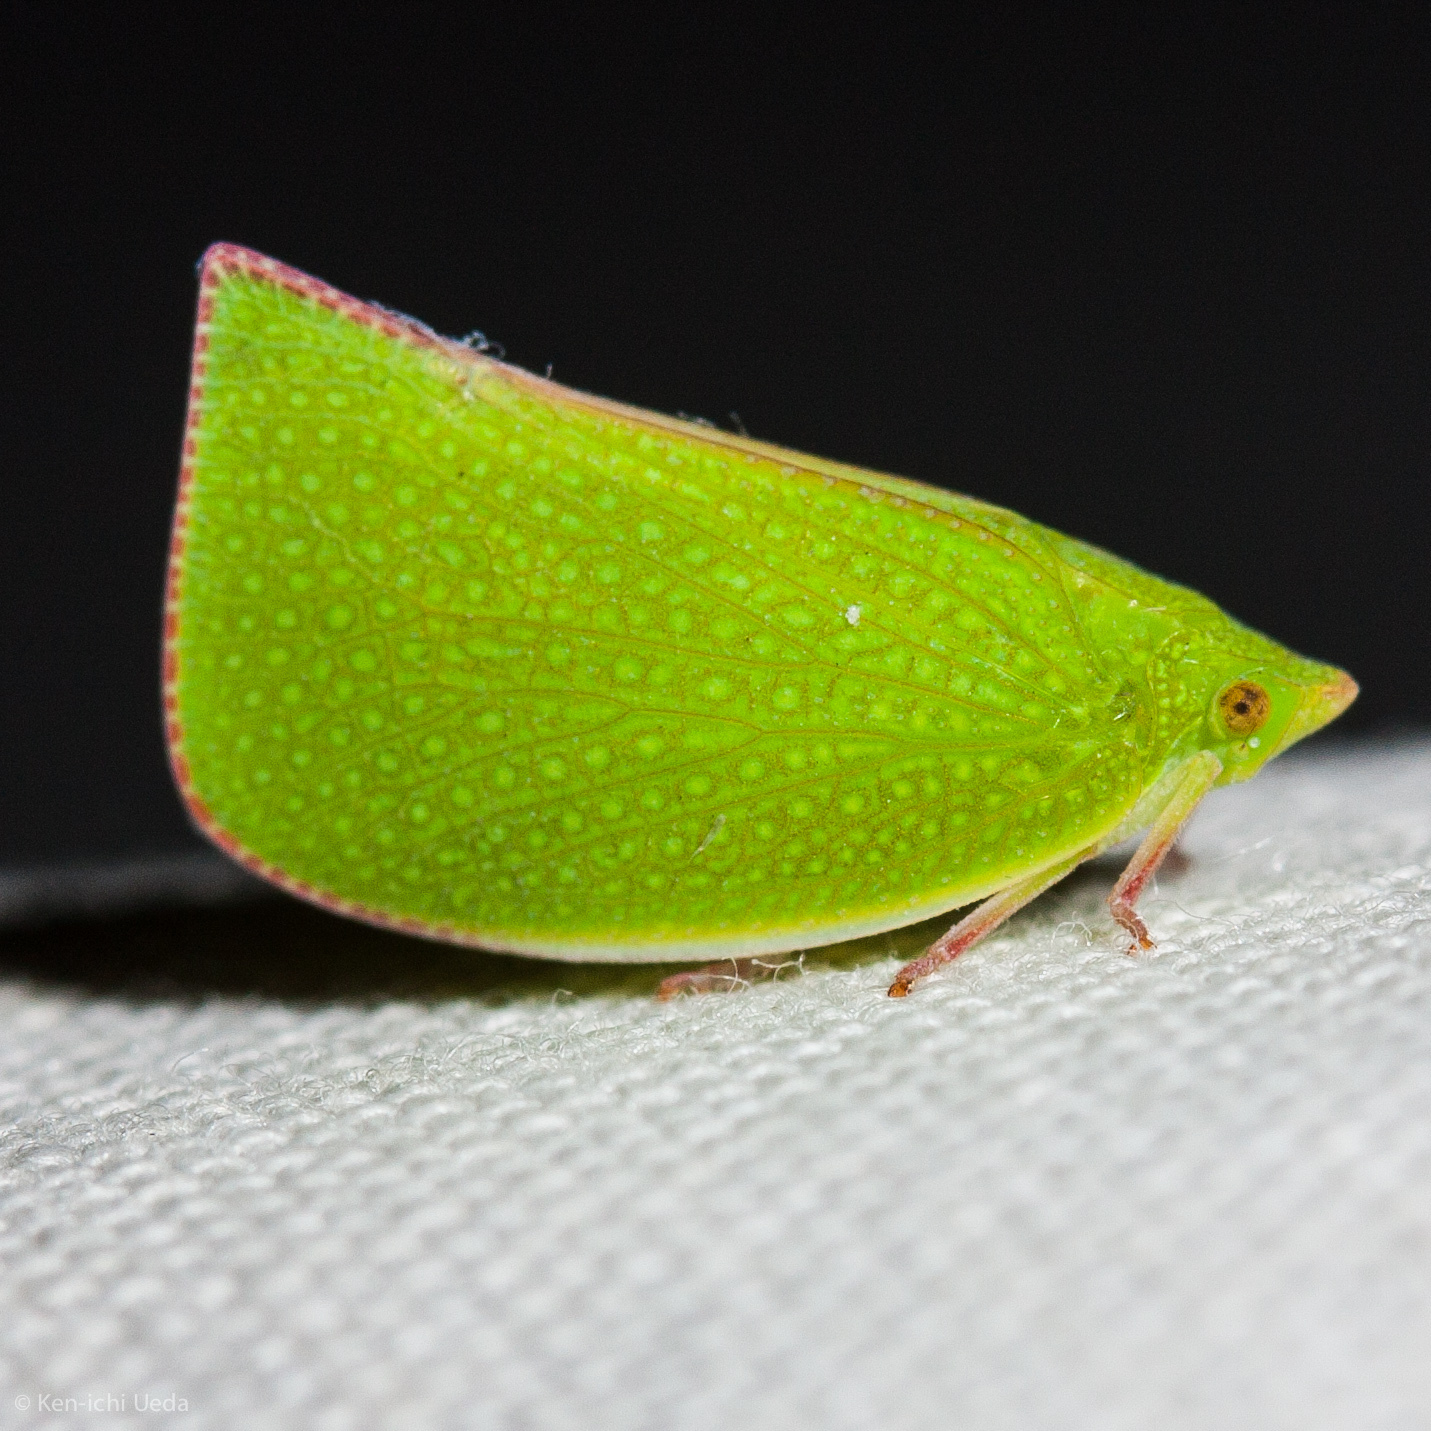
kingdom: Animalia
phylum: Arthropoda
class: Insecta
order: Hemiptera
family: Flatidae
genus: Siphanta
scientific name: Siphanta acuta
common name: Torpedo bug
